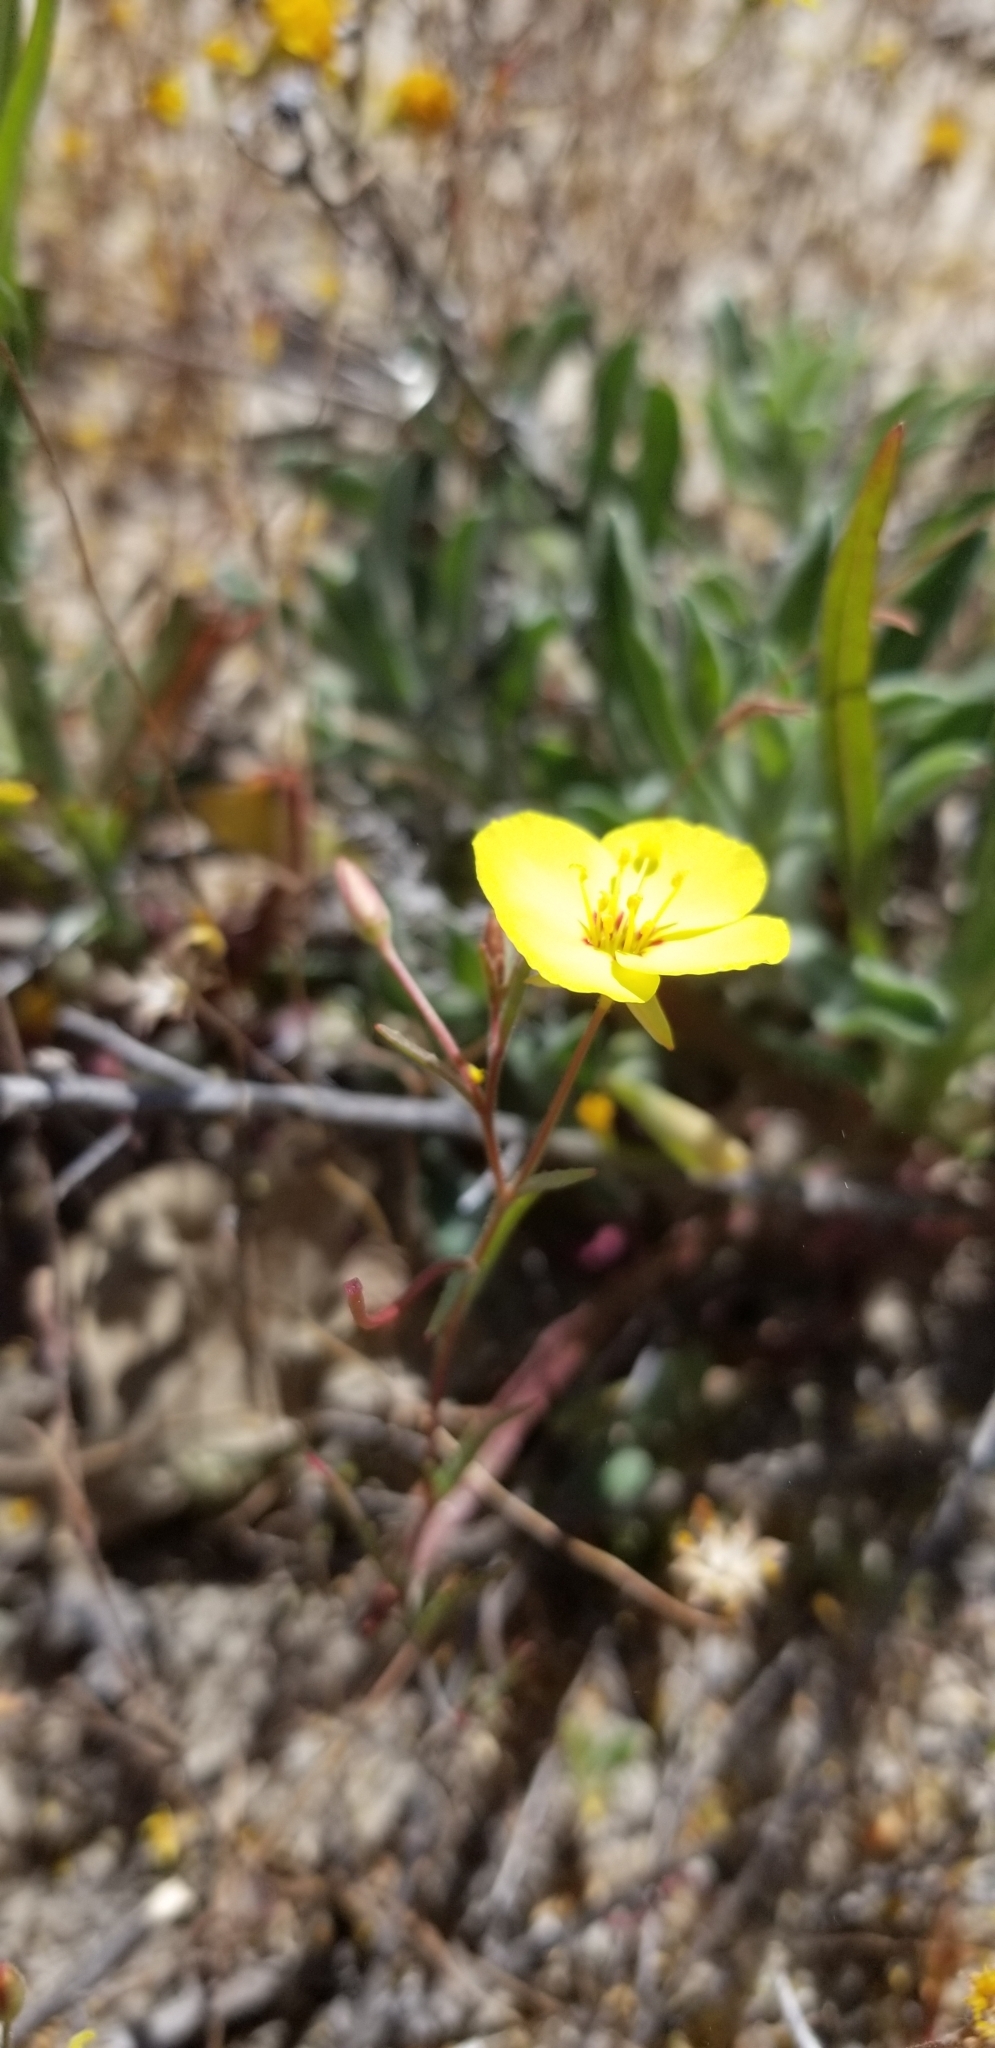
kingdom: Plantae
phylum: Tracheophyta
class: Magnoliopsida
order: Myrtales
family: Onagraceae
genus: Camissonia
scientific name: Camissonia campestris
